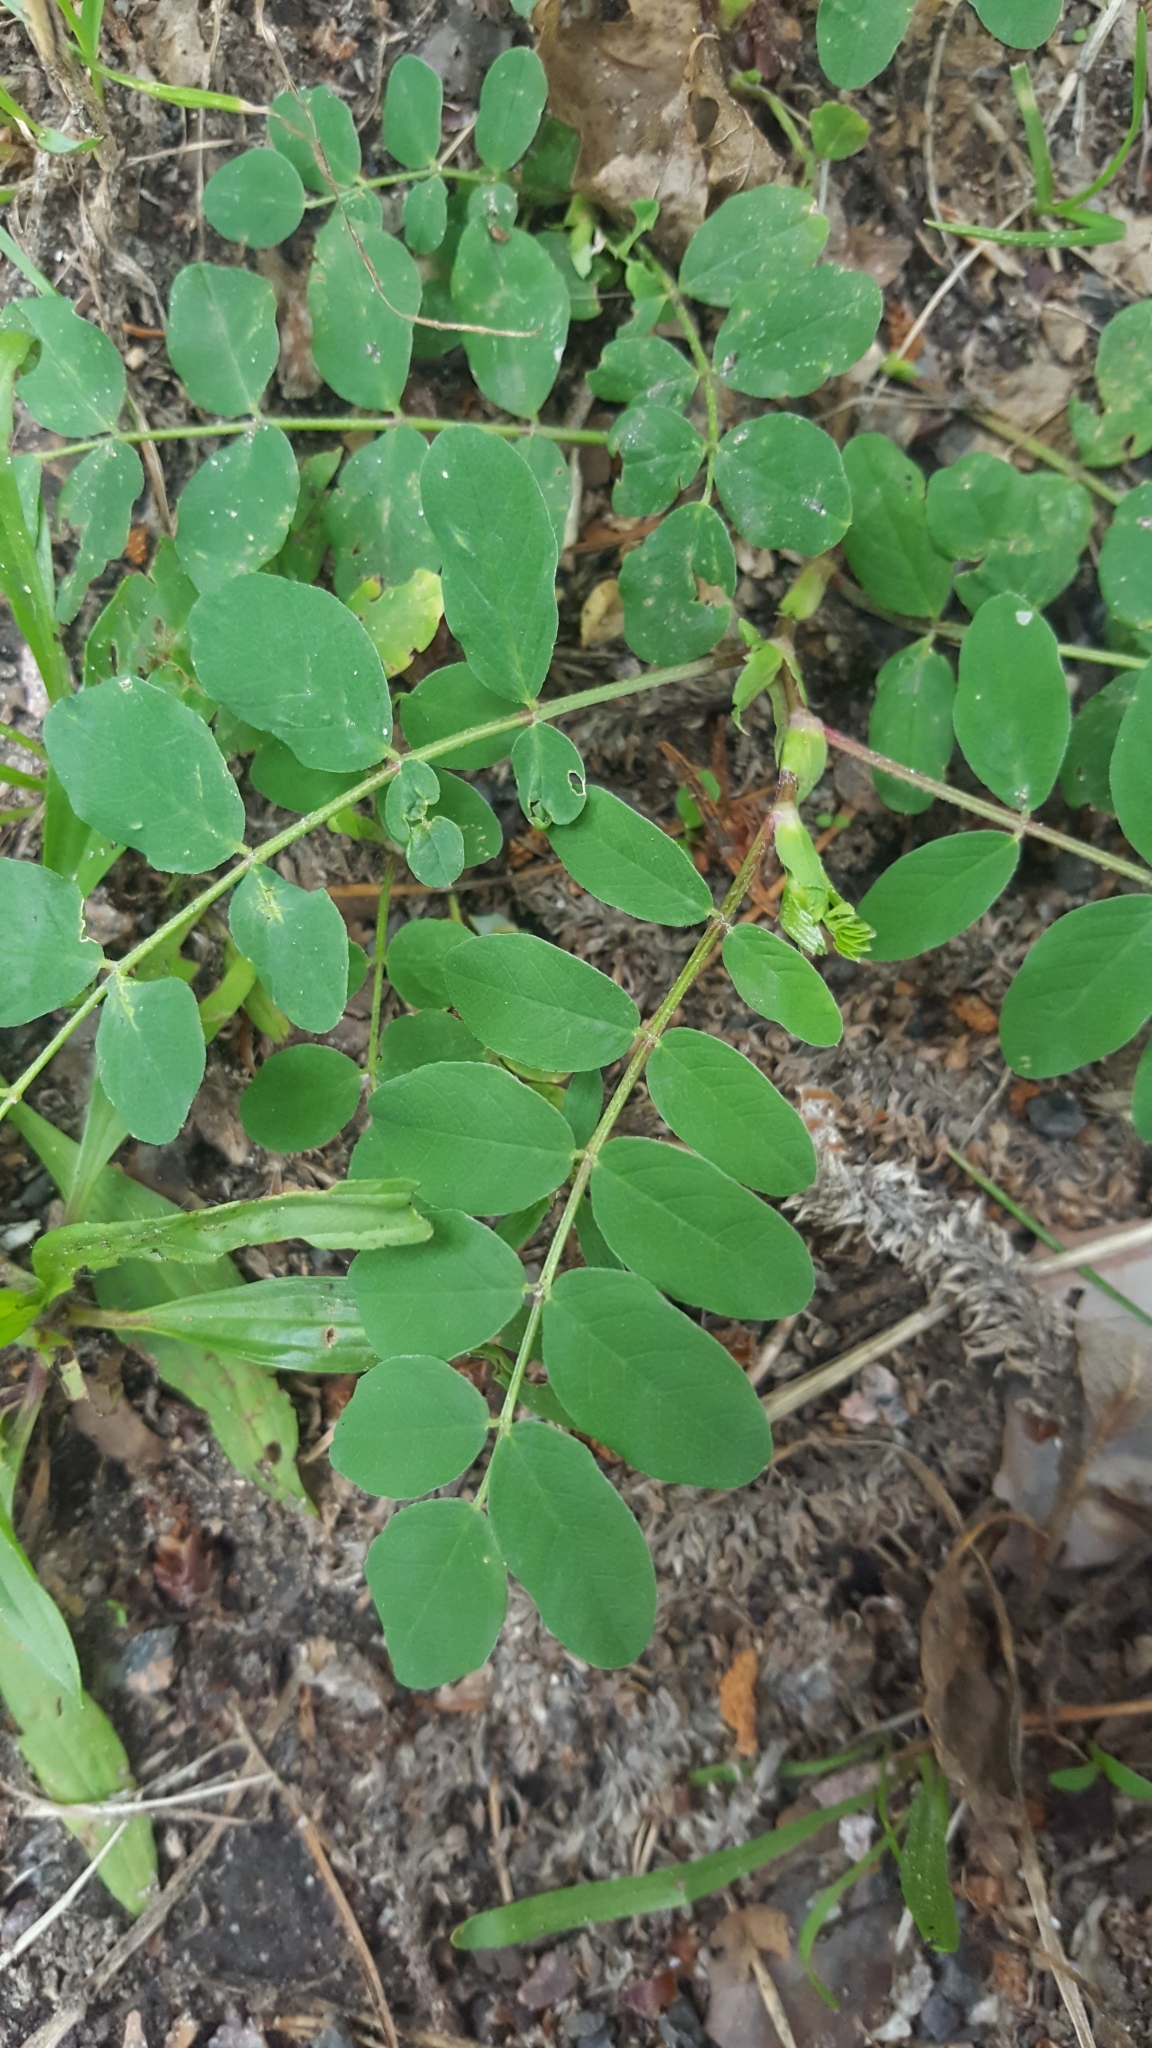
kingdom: Plantae
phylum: Tracheophyta
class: Magnoliopsida
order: Fabales
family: Fabaceae
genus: Astragalus
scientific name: Astragalus glycyphyllos
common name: Wild liquorice
